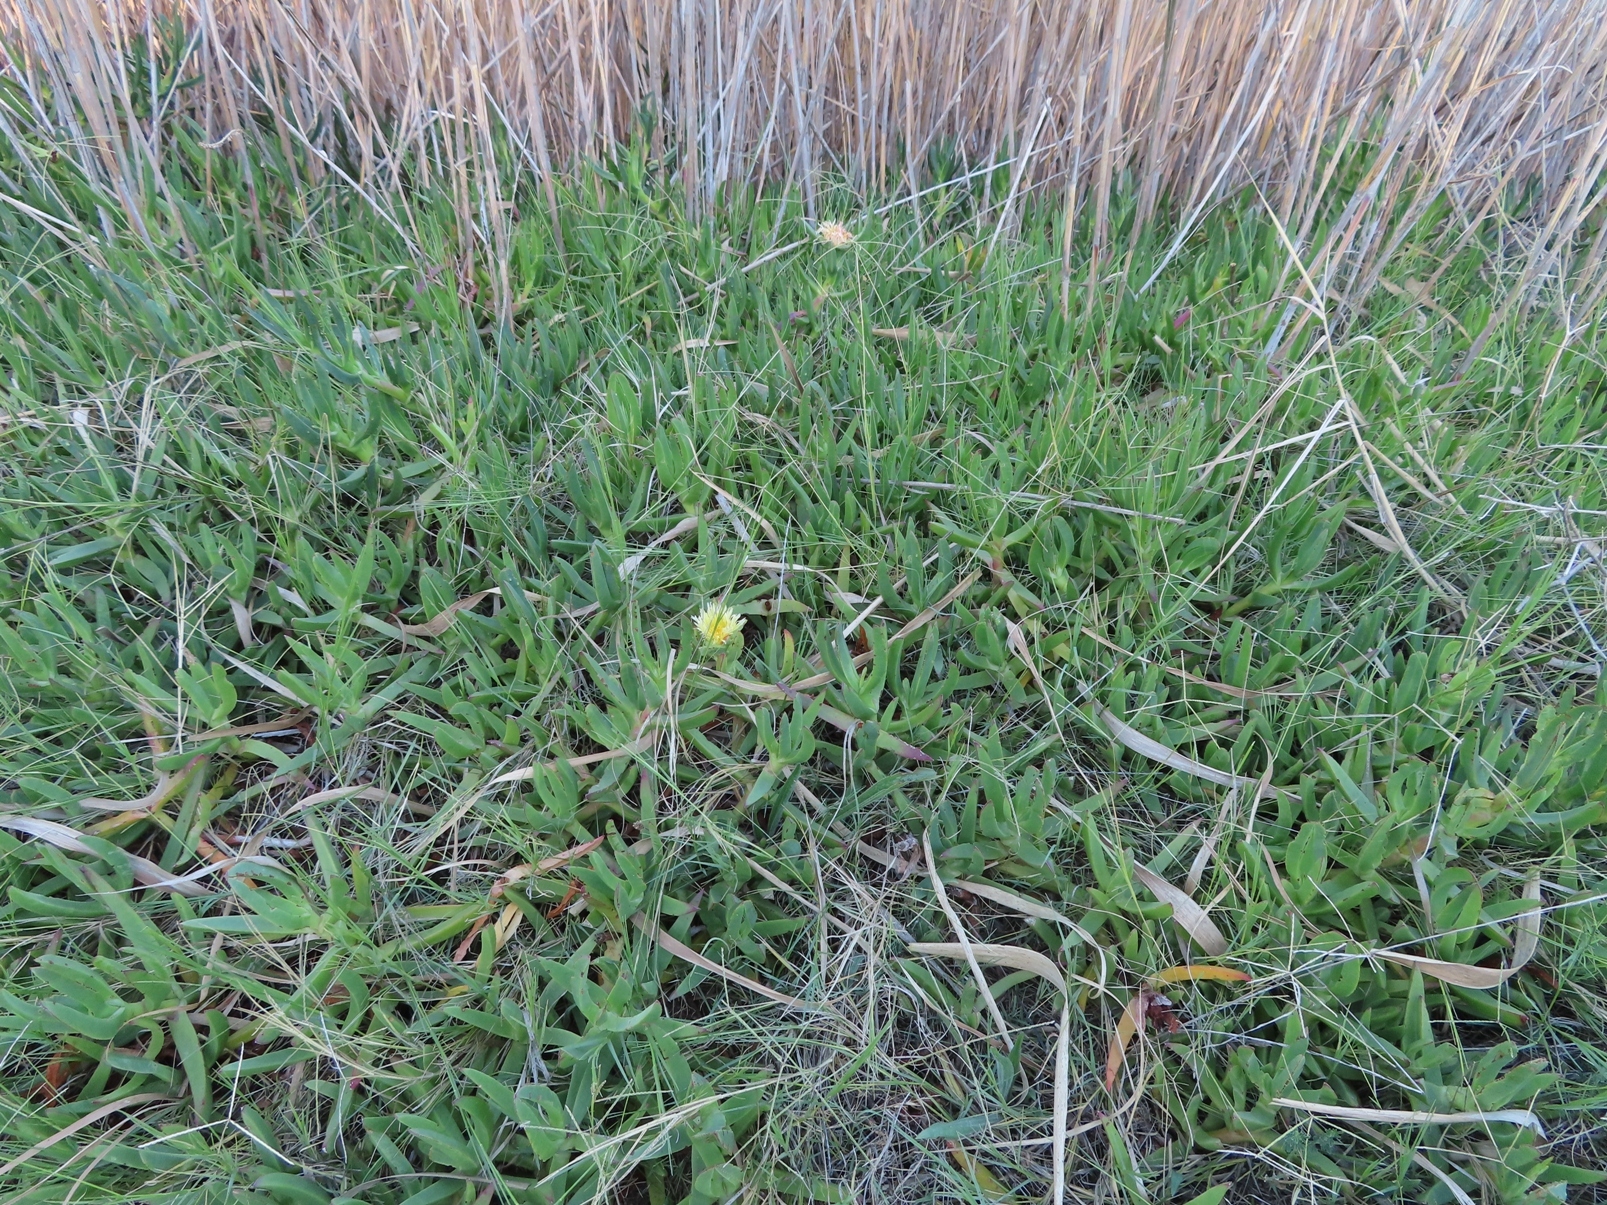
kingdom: Plantae
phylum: Tracheophyta
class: Magnoliopsida
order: Caryophyllales
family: Aizoaceae
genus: Carpobrotus
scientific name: Carpobrotus edulis
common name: Hottentot-fig
